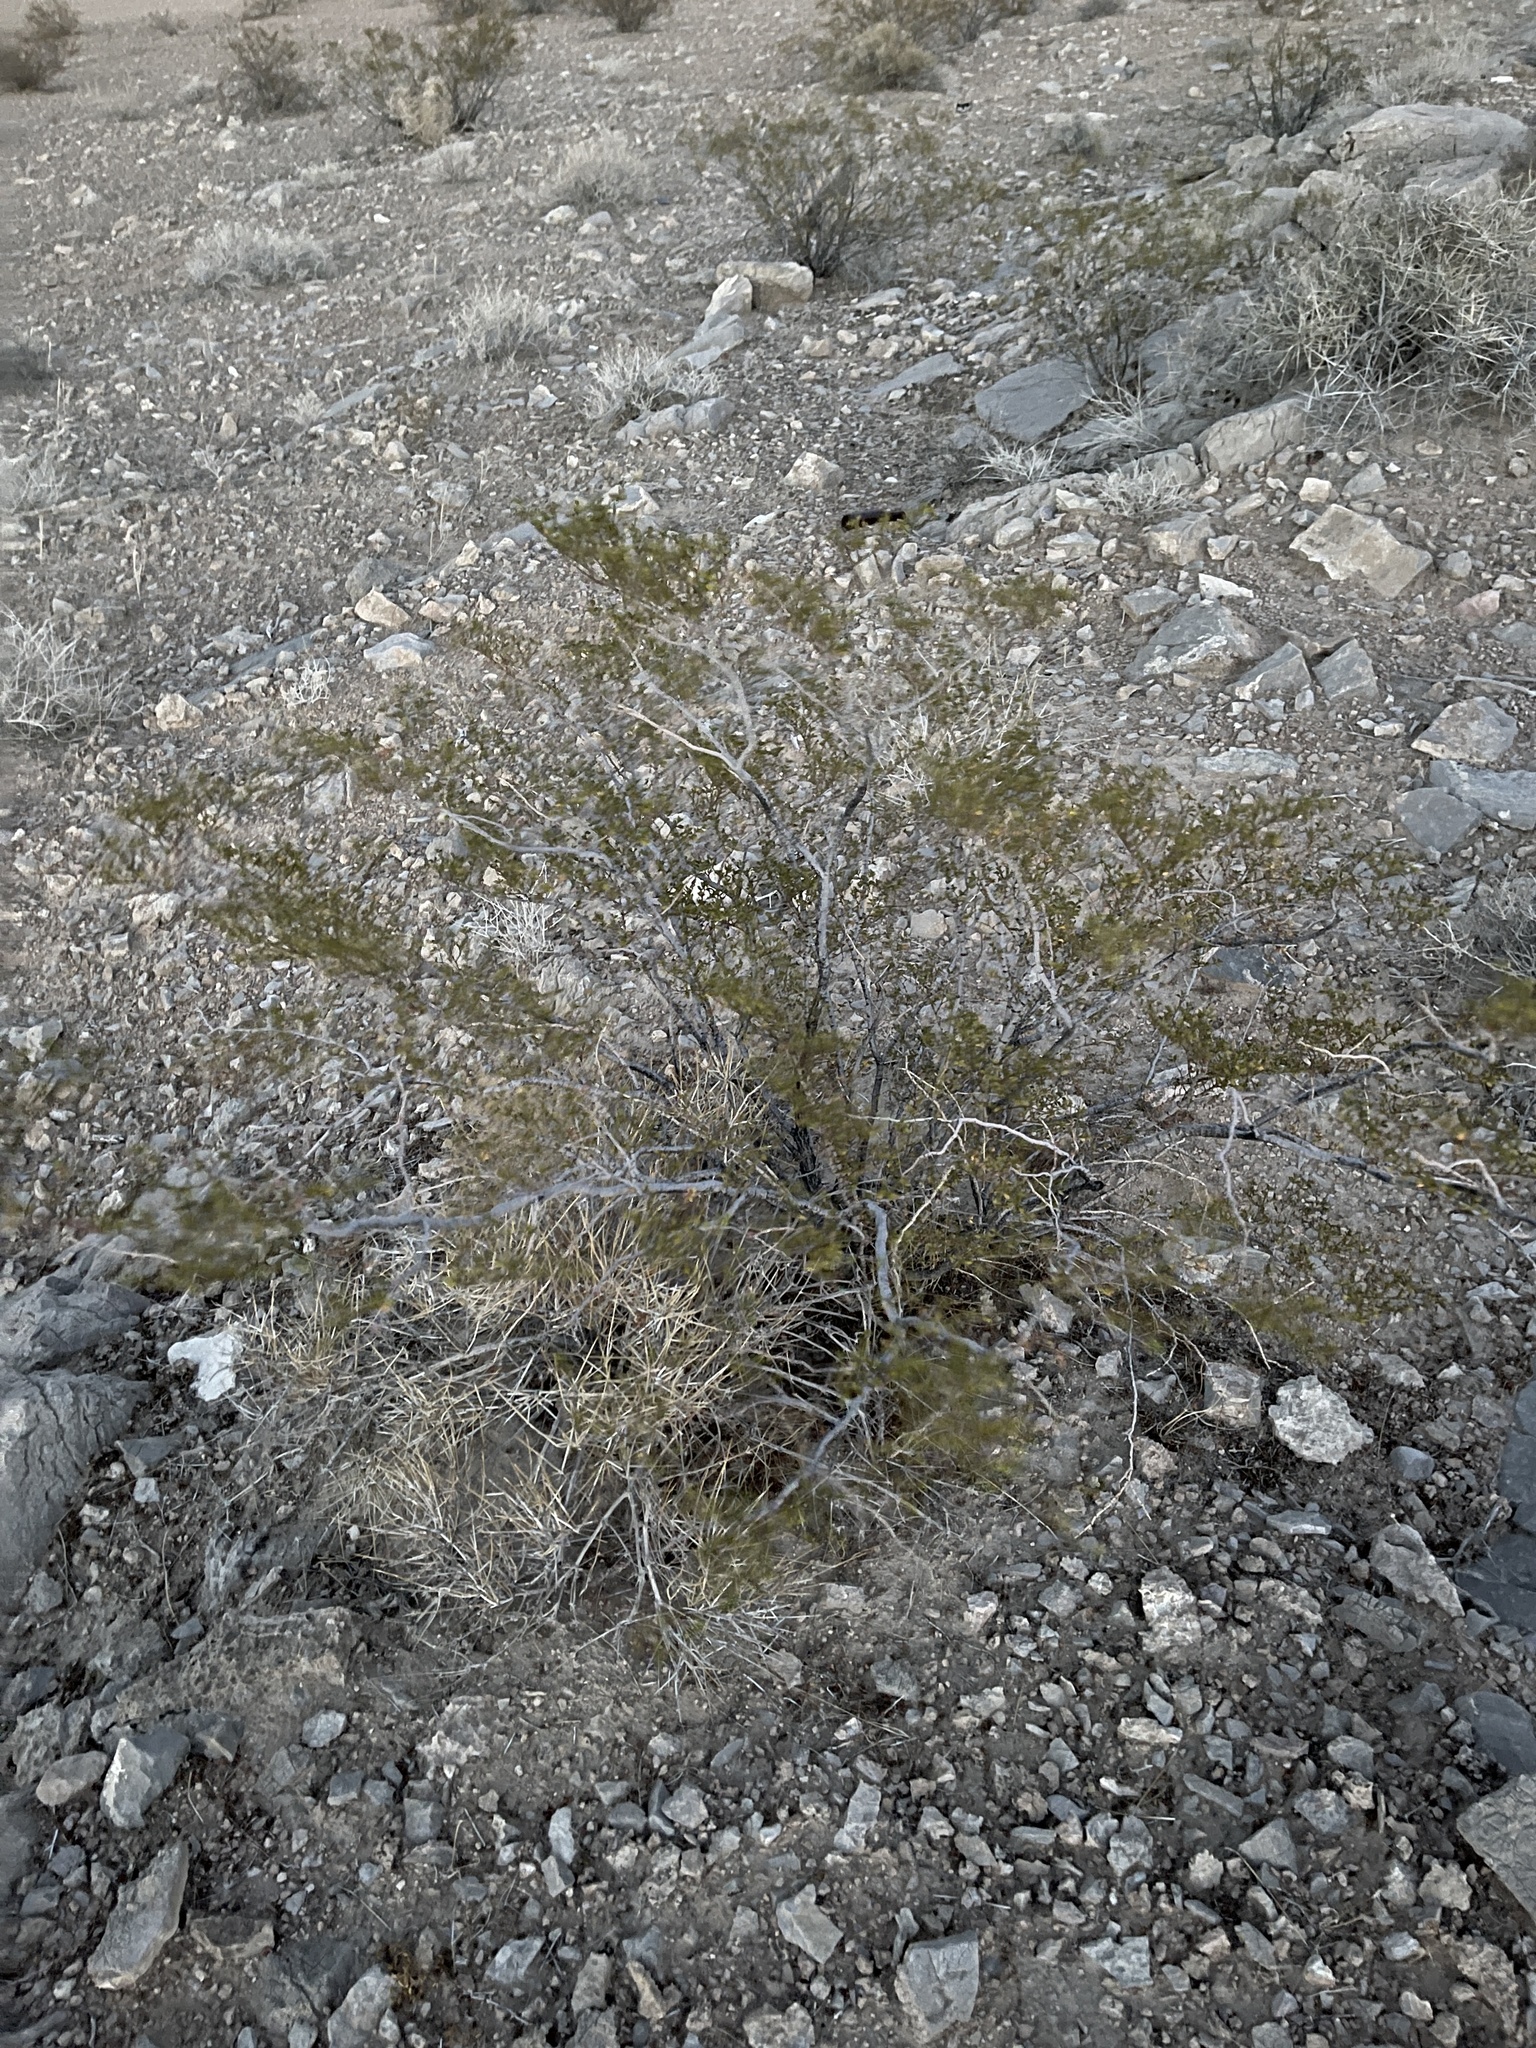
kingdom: Plantae
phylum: Tracheophyta
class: Magnoliopsida
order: Zygophyllales
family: Zygophyllaceae
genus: Larrea
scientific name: Larrea tridentata
